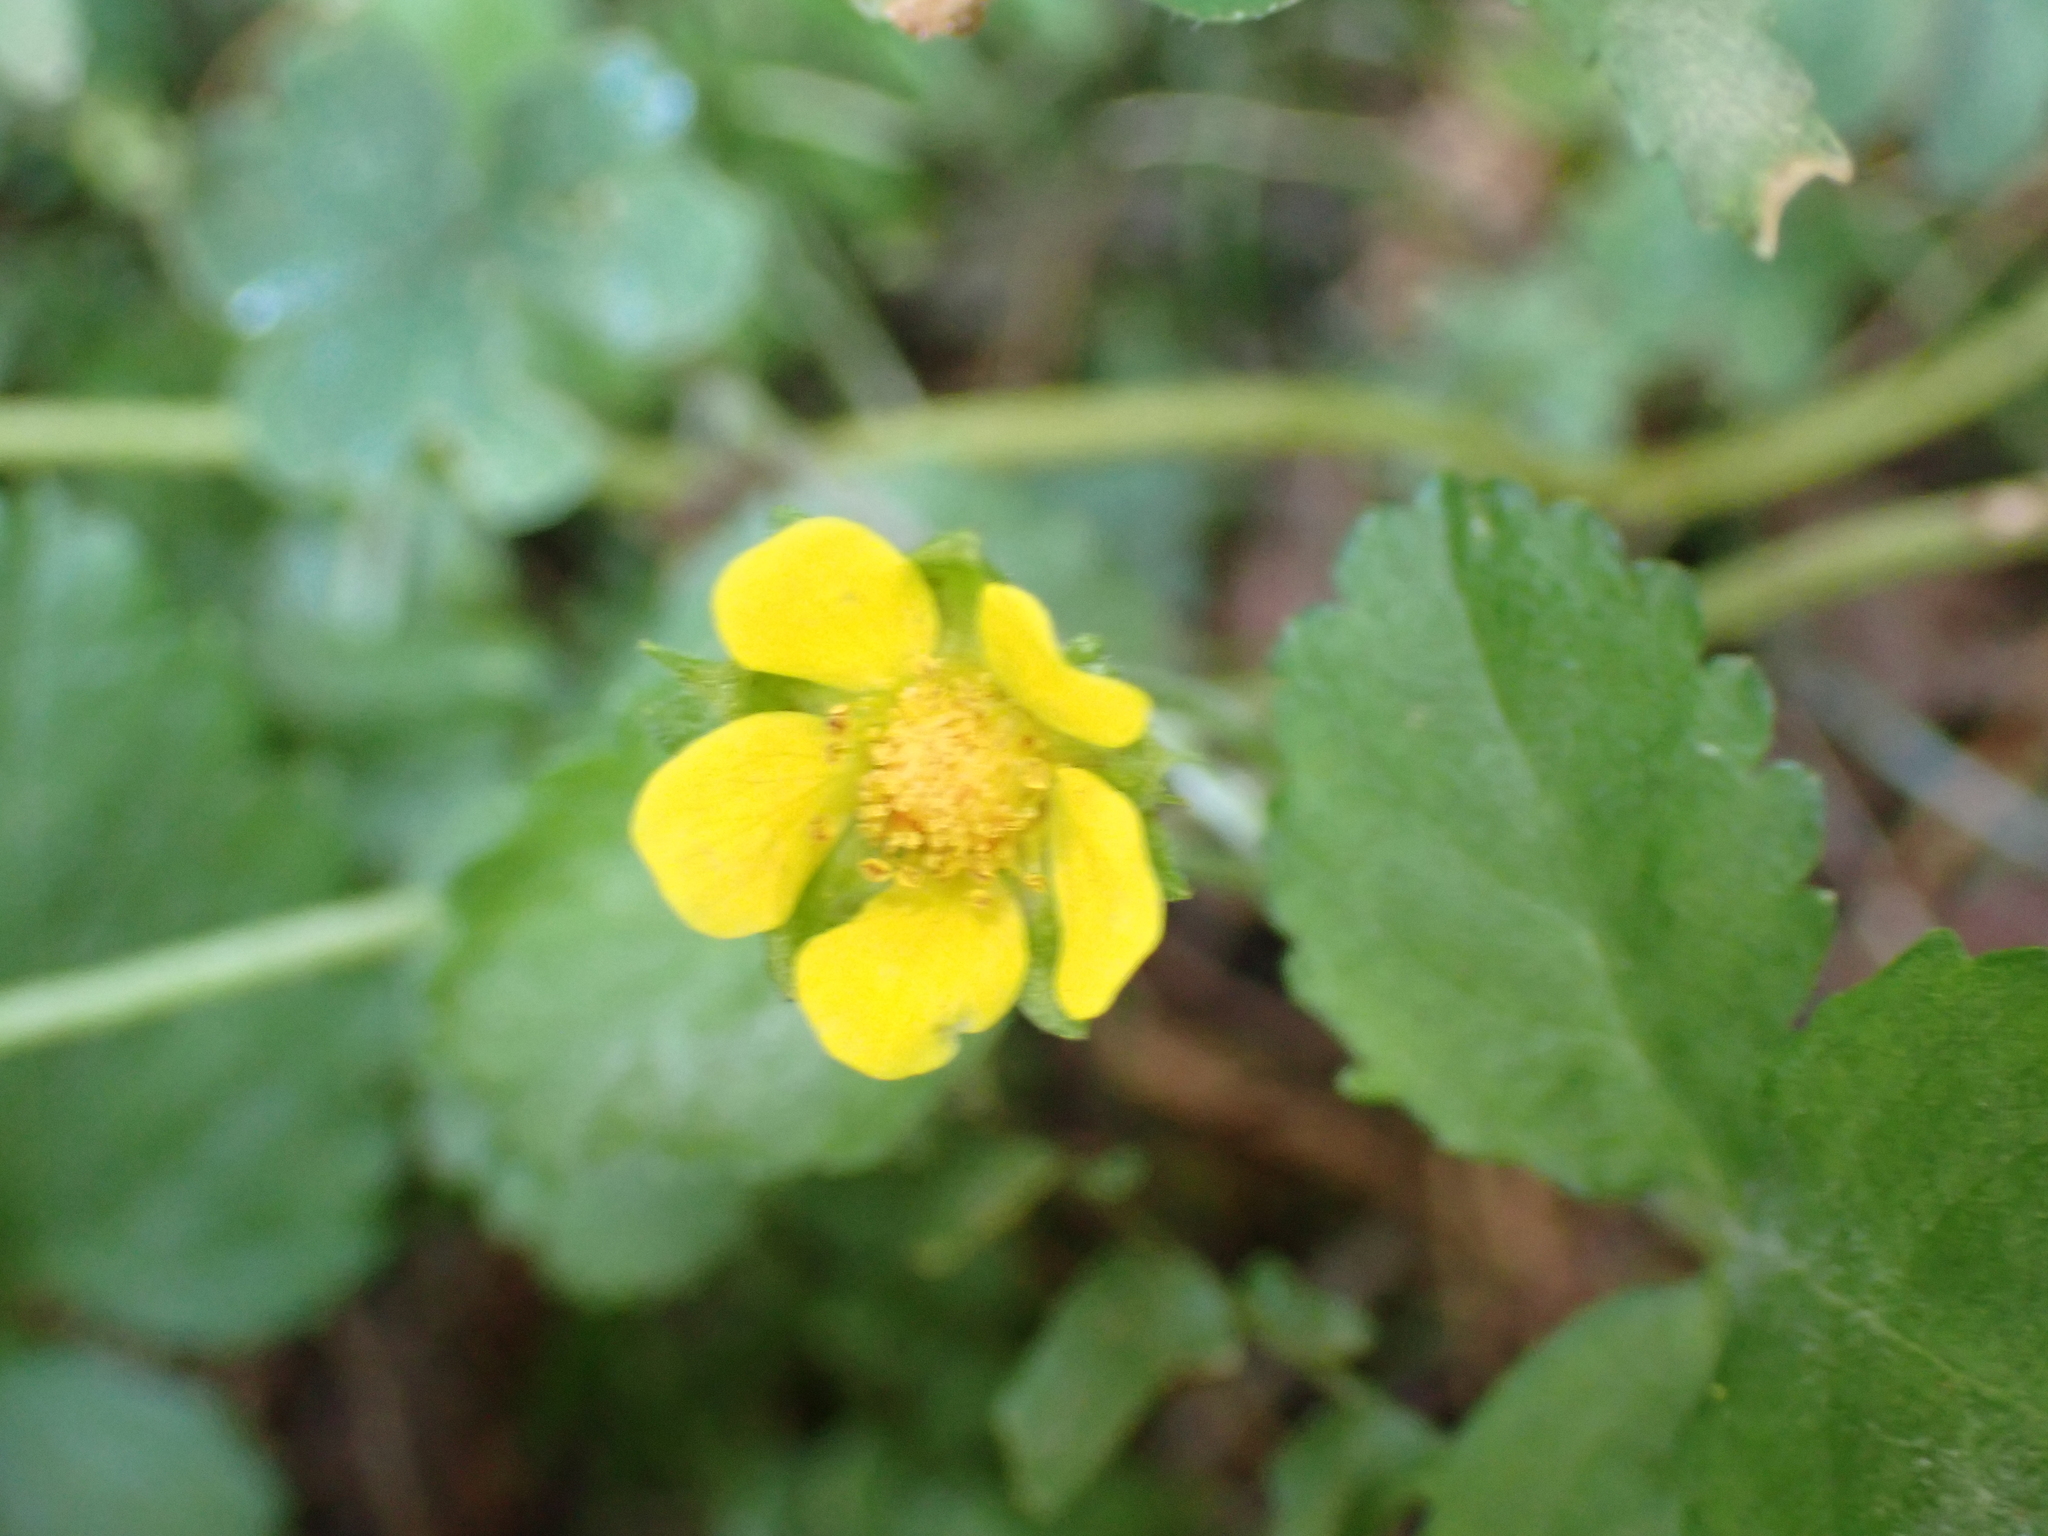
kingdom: Plantae
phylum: Tracheophyta
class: Magnoliopsida
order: Rosales
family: Rosaceae
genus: Potentilla
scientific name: Potentilla indica
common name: Yellow-flowered strawberry
